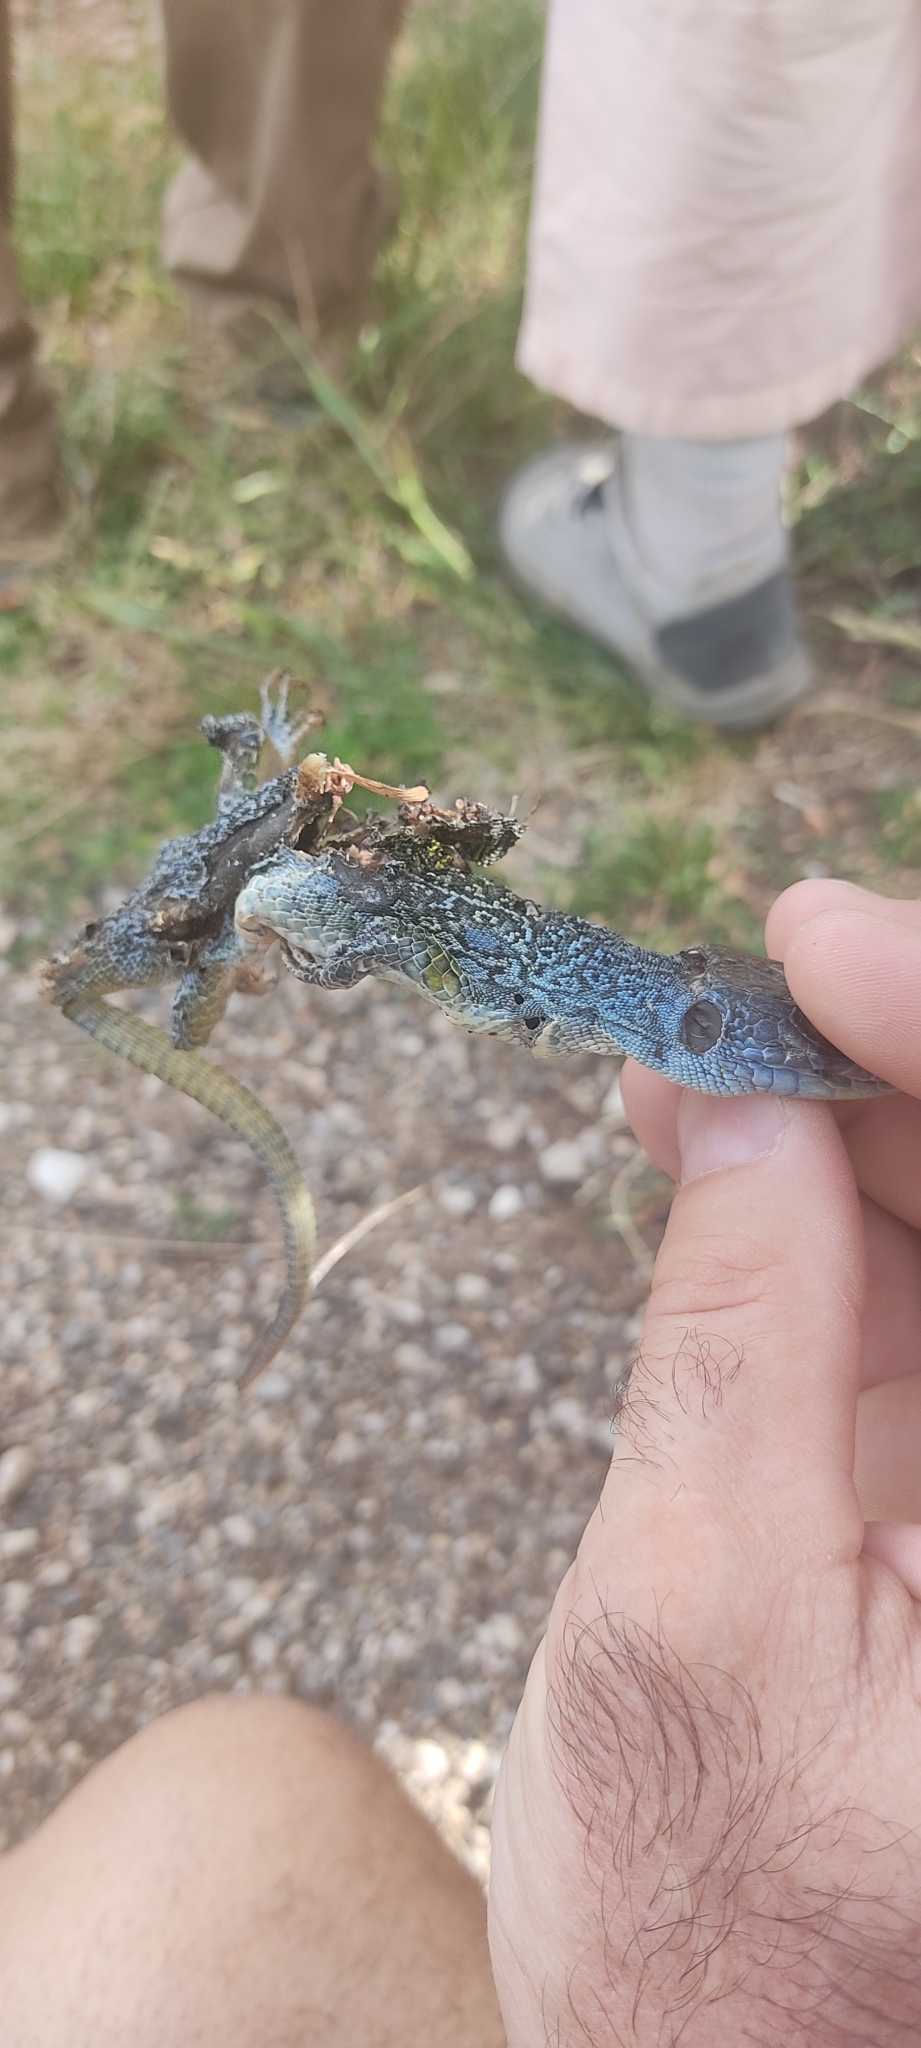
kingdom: Animalia
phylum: Chordata
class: Squamata
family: Lacertidae
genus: Timon
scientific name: Timon lepidus
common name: Ocellated lizard
